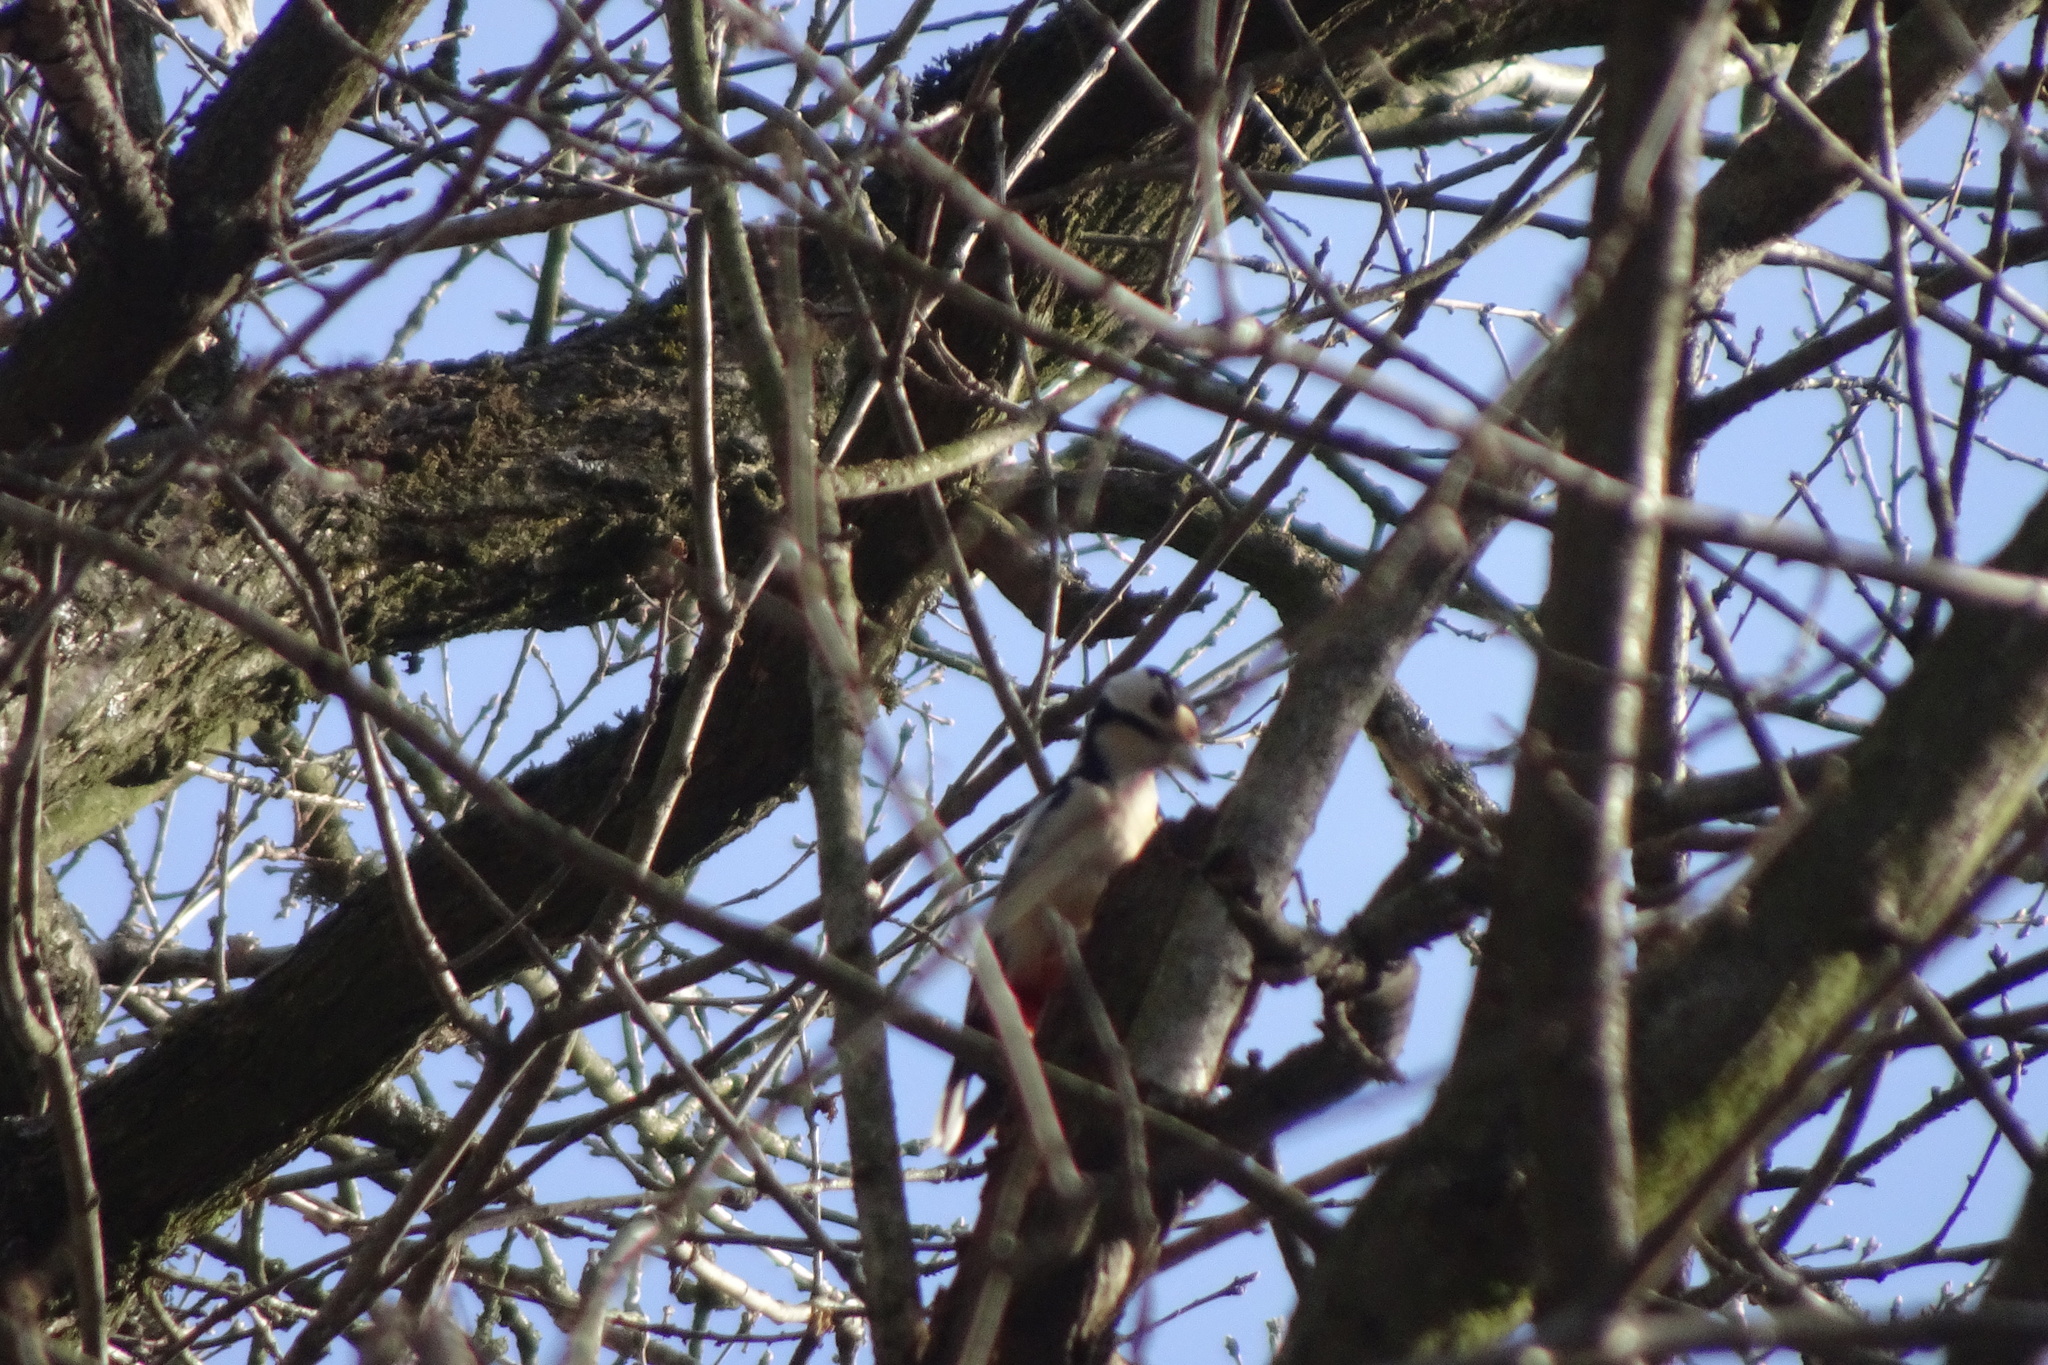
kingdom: Animalia
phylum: Chordata
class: Aves
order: Piciformes
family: Picidae
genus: Dendrocopos
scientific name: Dendrocopos major
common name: Great spotted woodpecker
